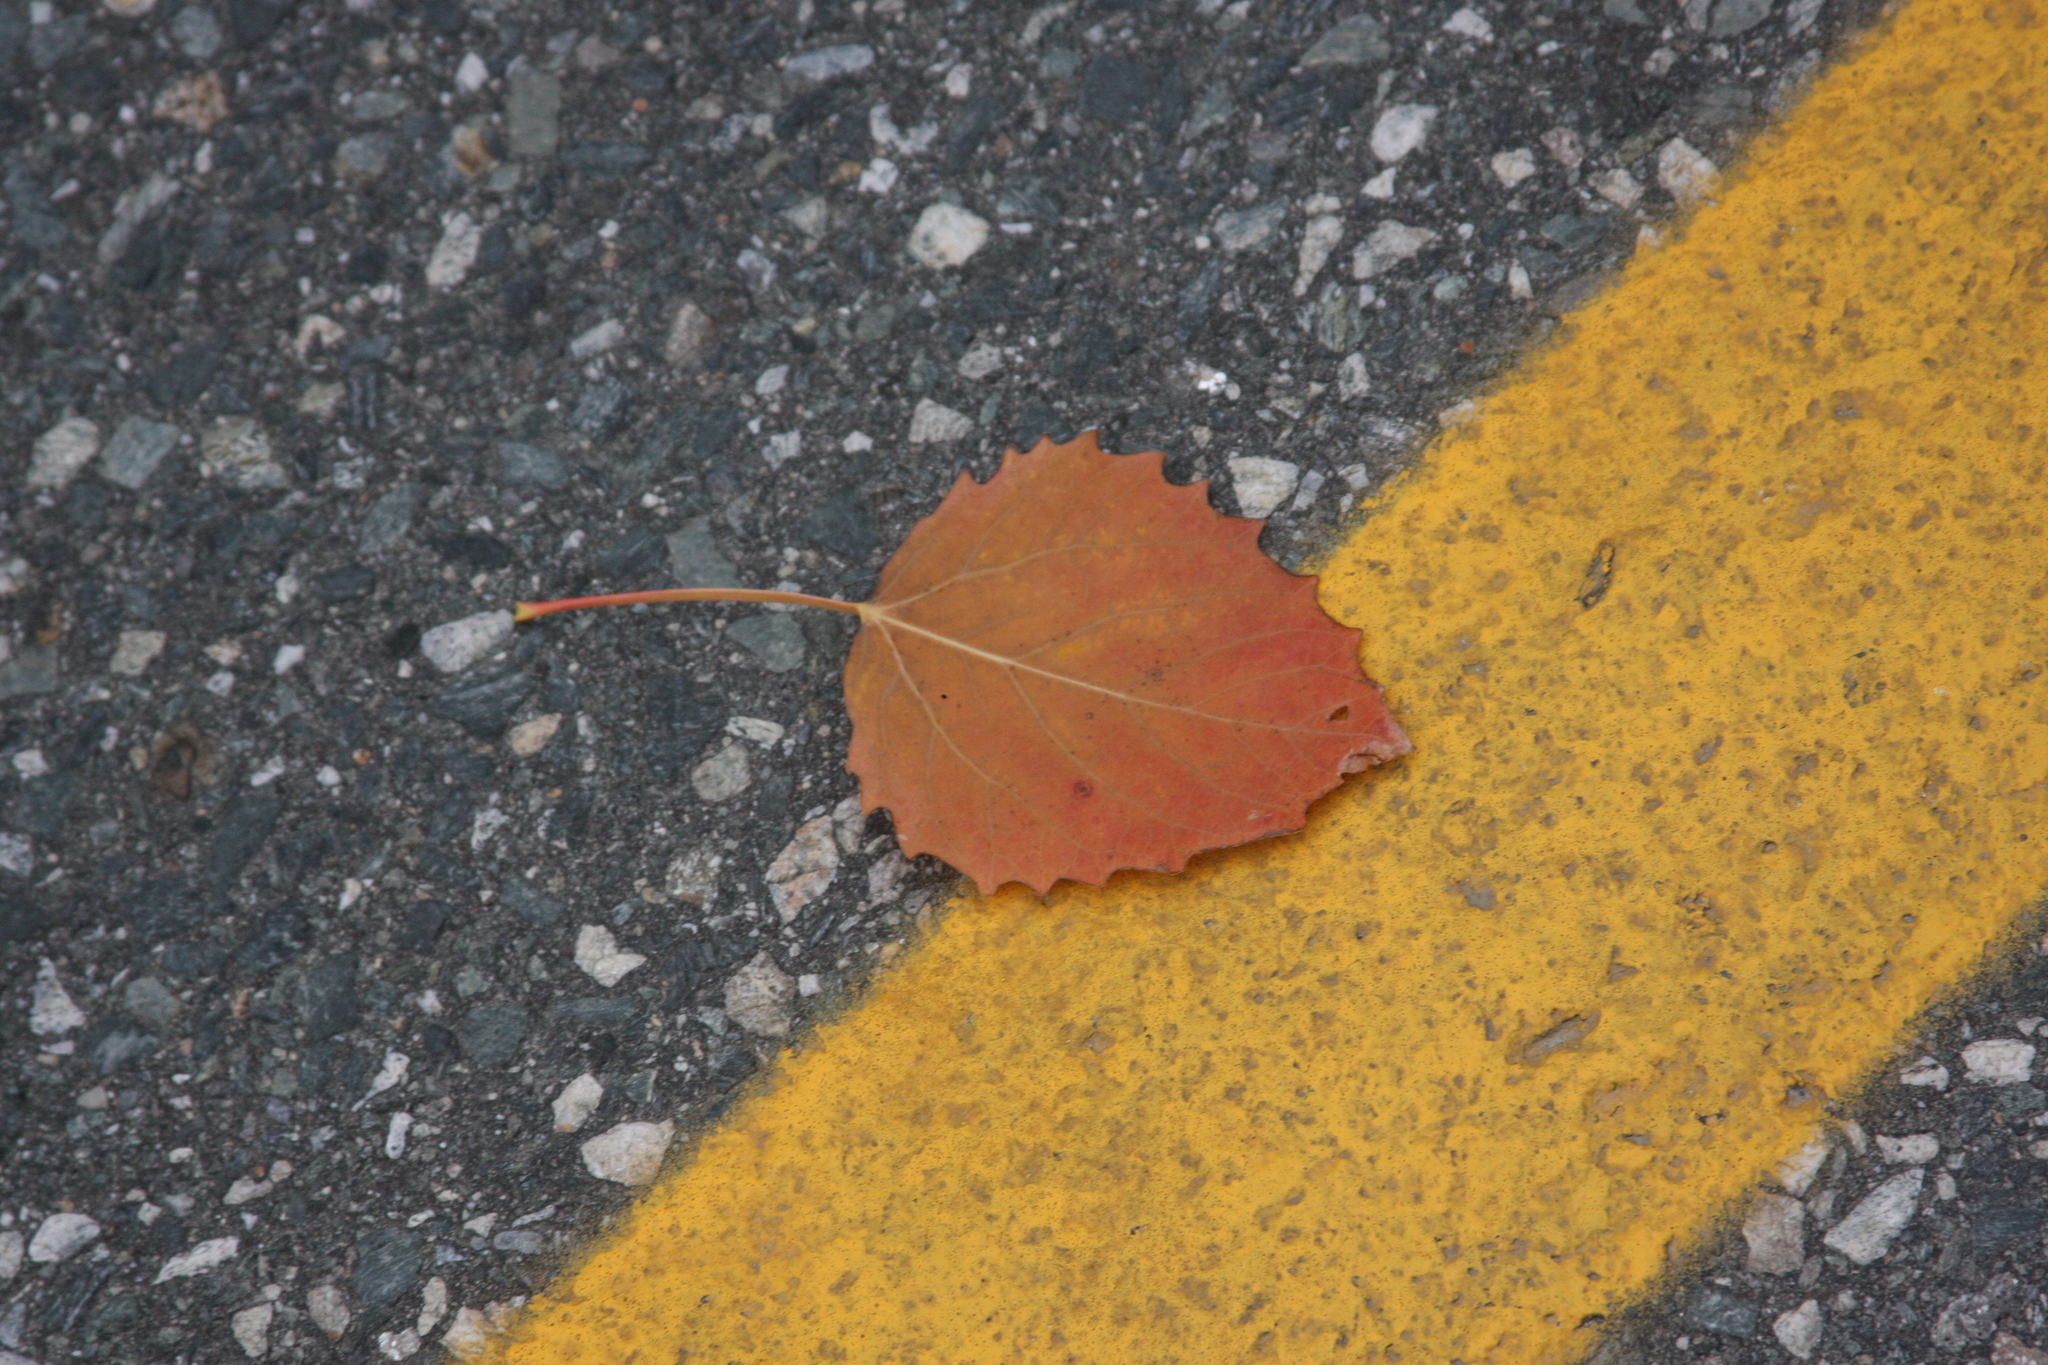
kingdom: Plantae
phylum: Tracheophyta
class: Magnoliopsida
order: Malpighiales
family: Salicaceae
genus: Populus
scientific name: Populus grandidentata
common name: Bigtooth aspen
